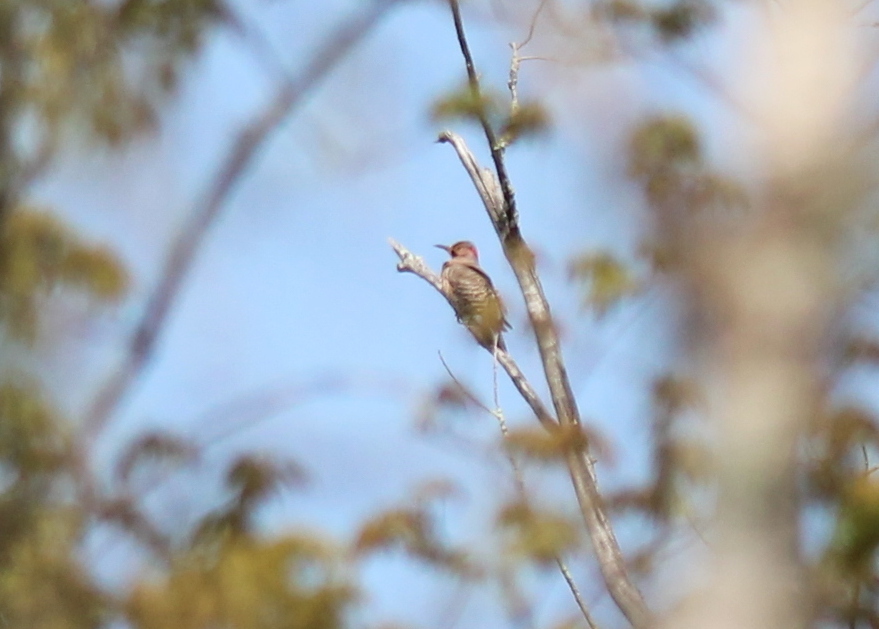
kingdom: Animalia
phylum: Chordata
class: Aves
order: Piciformes
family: Picidae
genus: Colaptes
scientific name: Colaptes auratus
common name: Northern flicker
